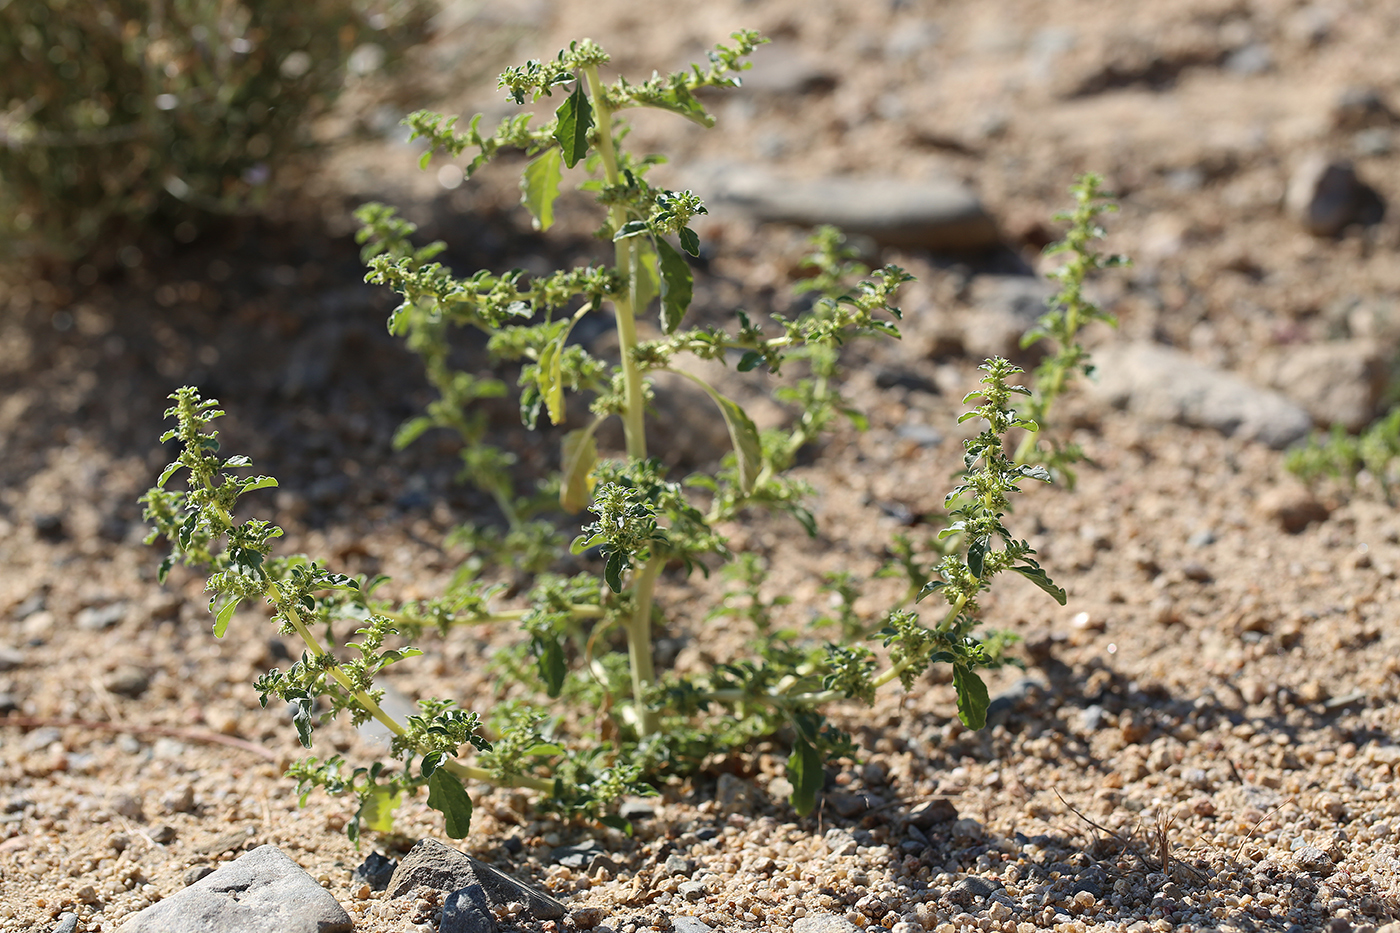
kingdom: Plantae
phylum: Tracheophyta
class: Magnoliopsida
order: Caryophyllales
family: Amaranthaceae
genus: Amaranthus
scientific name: Amaranthus albus
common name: White pigweed
